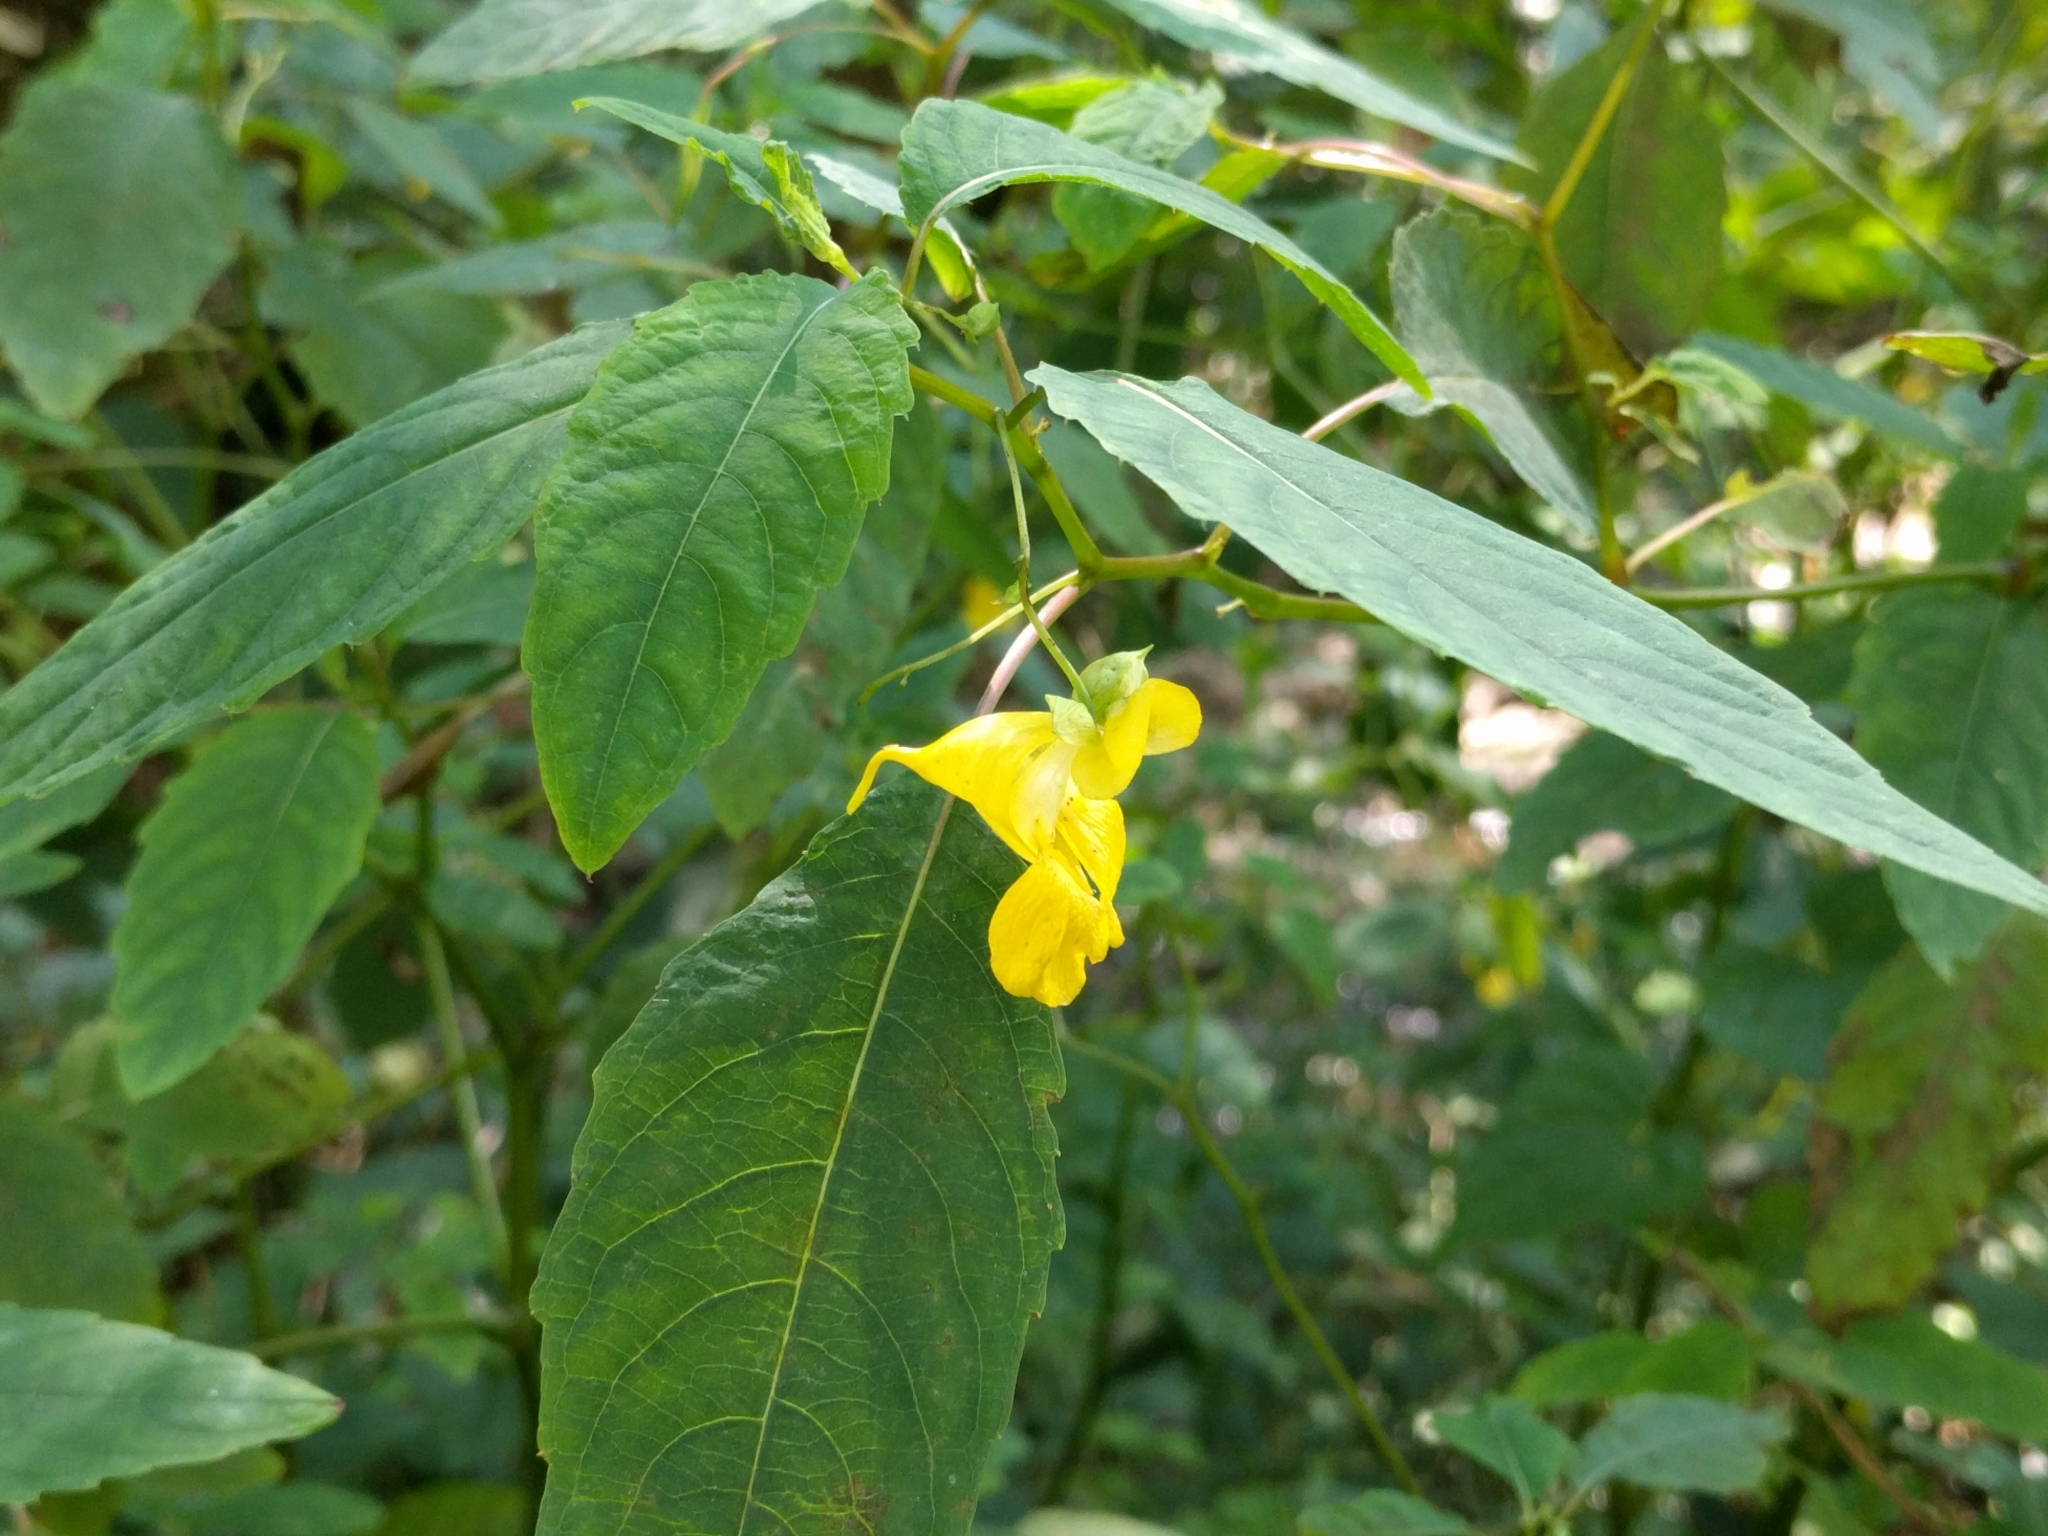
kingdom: Plantae
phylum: Tracheophyta
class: Magnoliopsida
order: Ericales
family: Balsaminaceae
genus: Impatiens
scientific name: Impatiens pallida
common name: Pale snapweed
